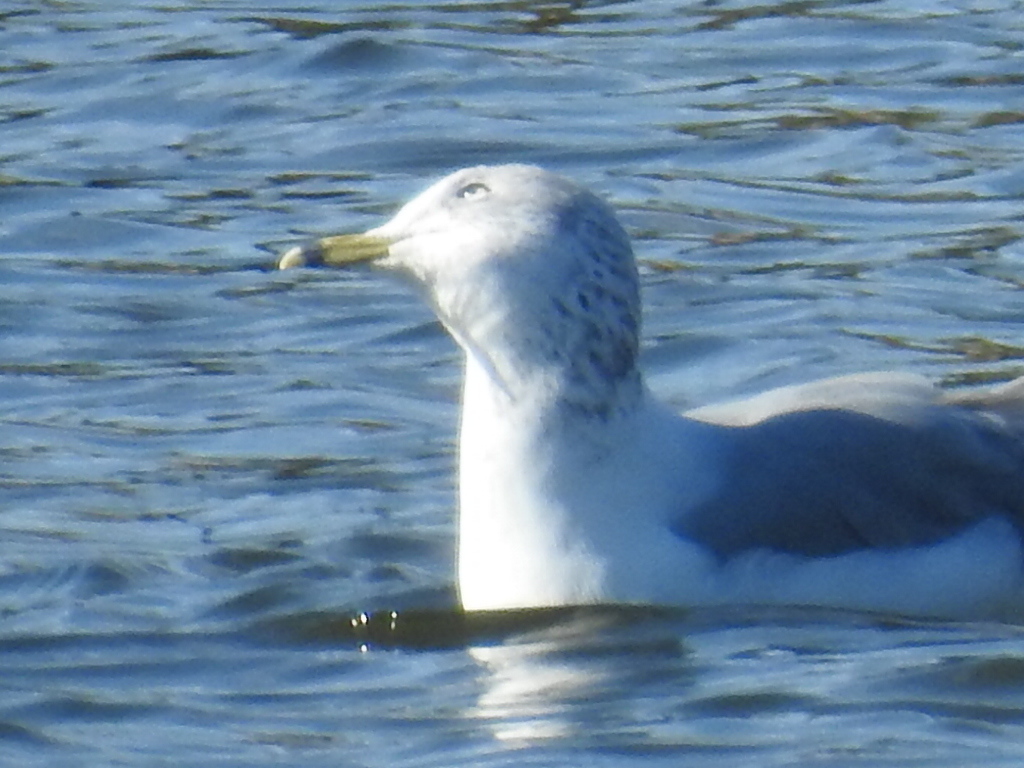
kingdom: Animalia
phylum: Chordata
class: Aves
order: Charadriiformes
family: Laridae
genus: Larus
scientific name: Larus delawarensis
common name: Ring-billed gull
